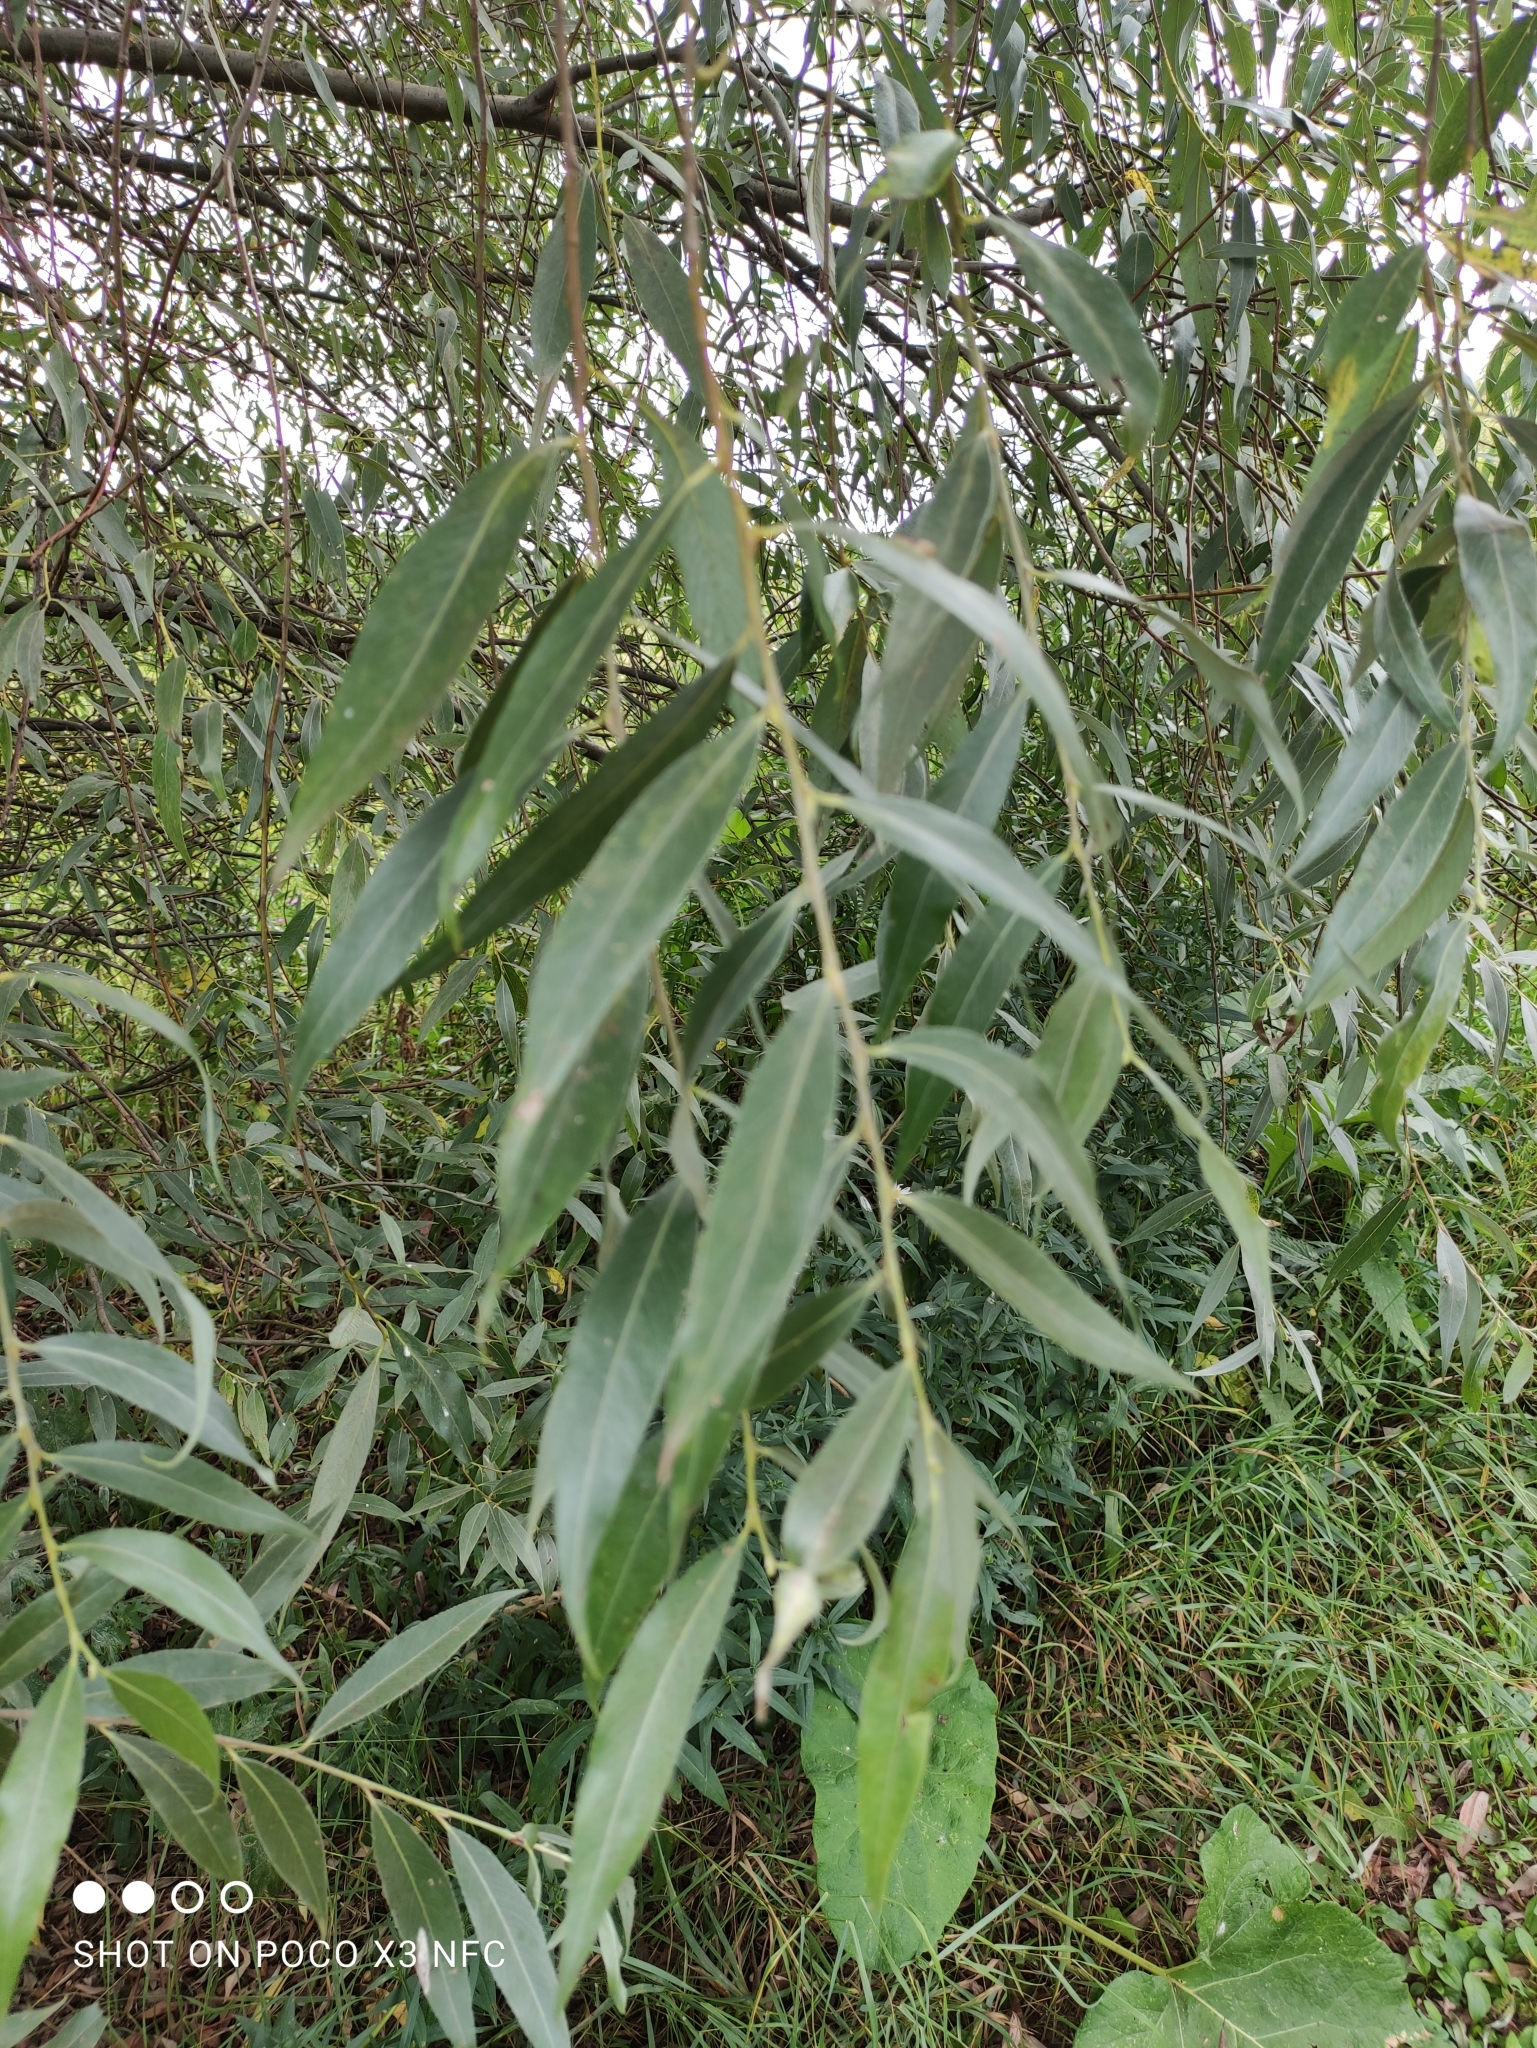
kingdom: Plantae
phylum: Tracheophyta
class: Magnoliopsida
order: Malpighiales
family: Salicaceae
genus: Salix
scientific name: Salix alba
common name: White willow
